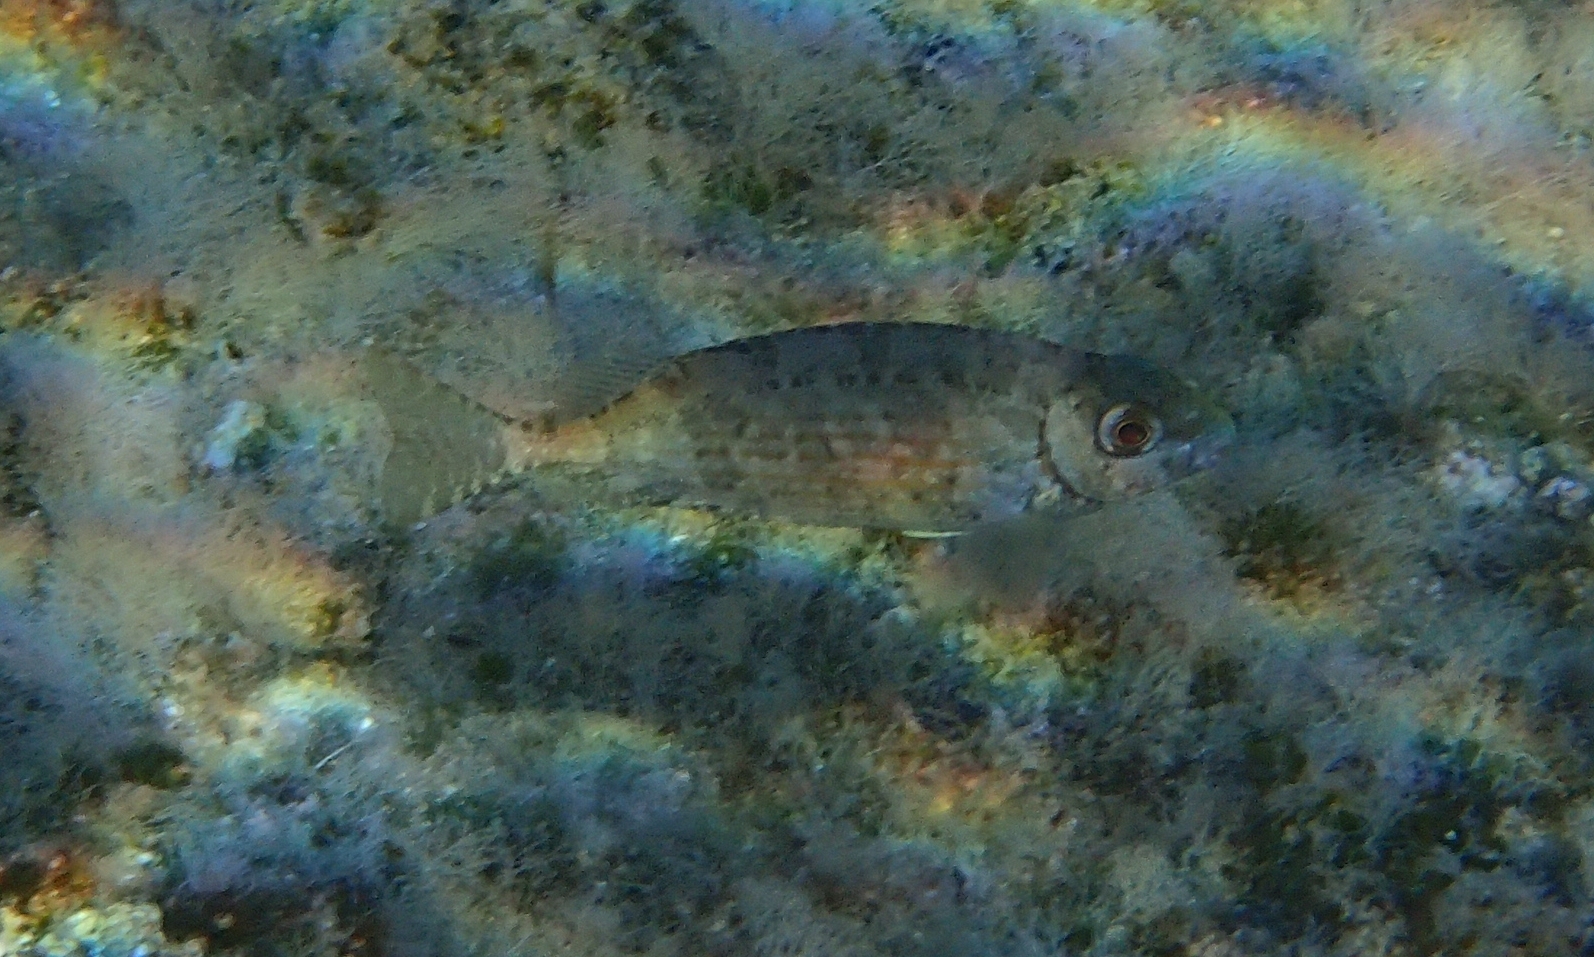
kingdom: Animalia
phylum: Chordata
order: Perciformes
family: Siganidae
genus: Siganus
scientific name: Siganus rivulatus
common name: Marbled spinefoot
